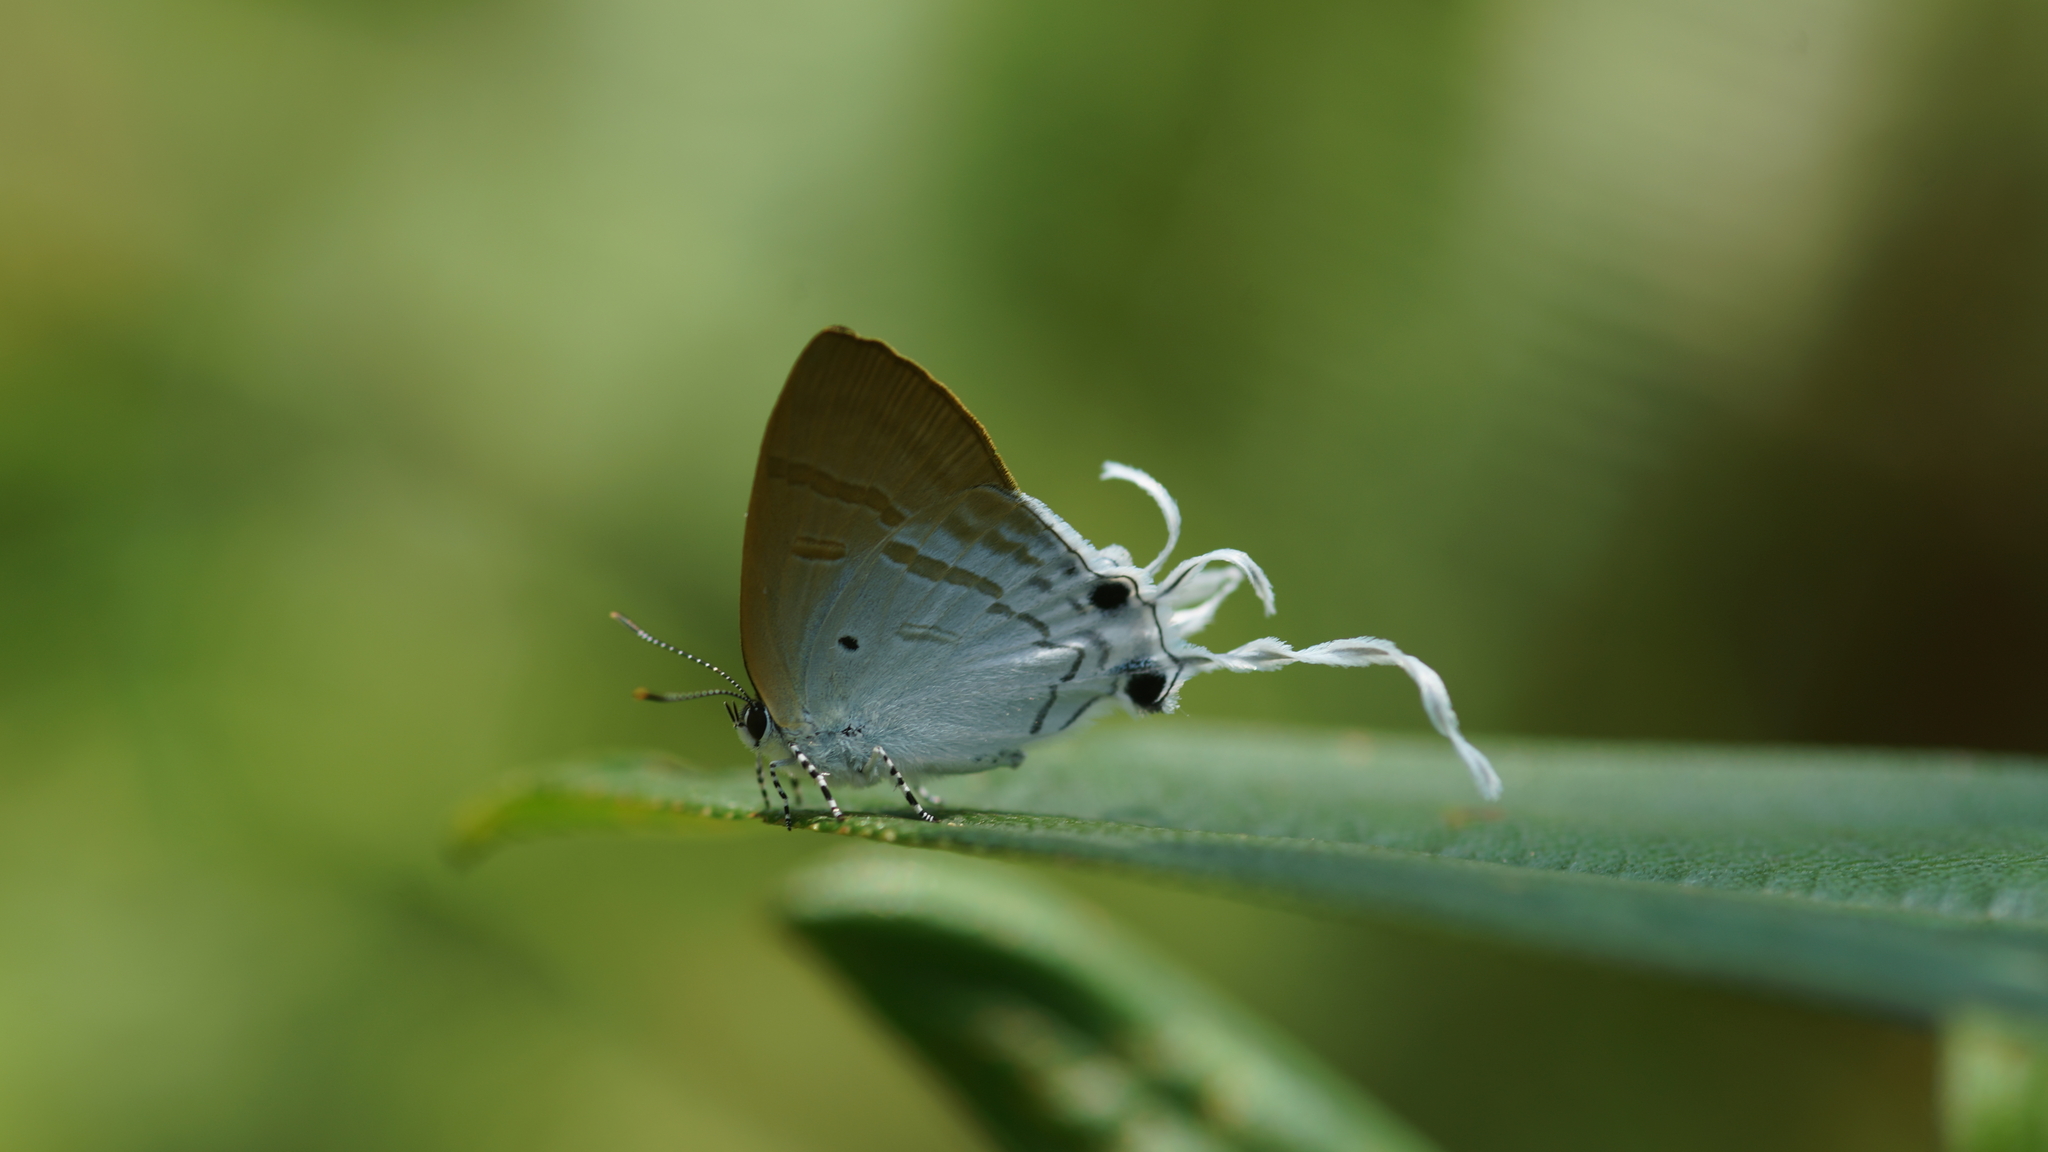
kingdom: Animalia
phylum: Arthropoda
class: Insecta
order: Lepidoptera
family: Lycaenidae
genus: Zeltus
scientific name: Zeltus amasa
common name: Fluffy tit
